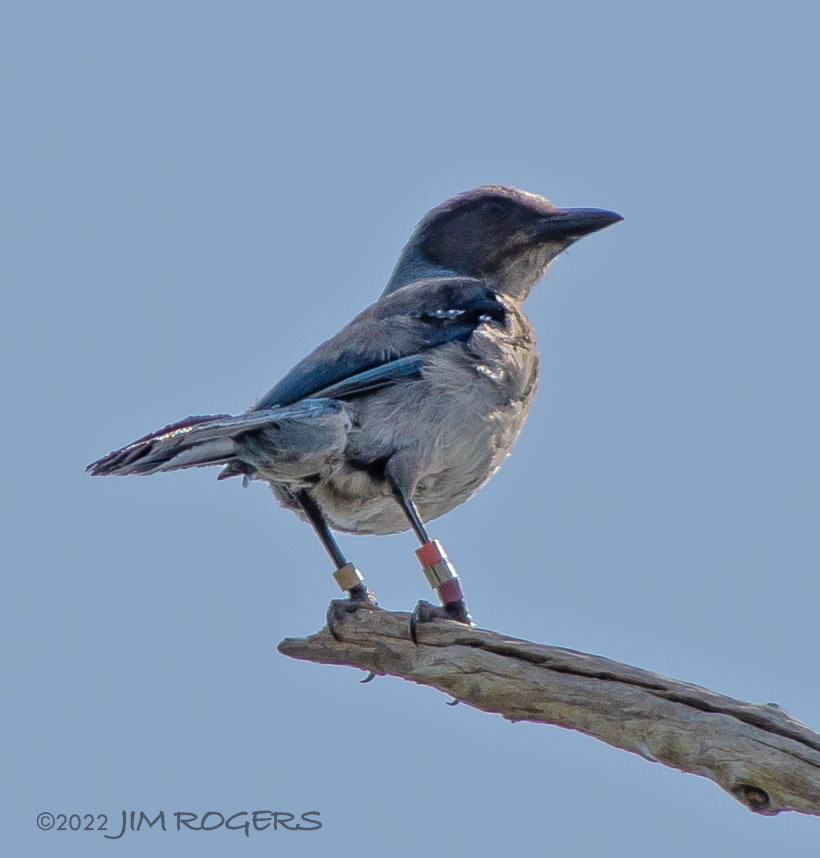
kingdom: Animalia
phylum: Chordata
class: Aves
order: Passeriformes
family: Corvidae
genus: Aphelocoma
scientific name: Aphelocoma coerulescens
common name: Florida scrub jay
